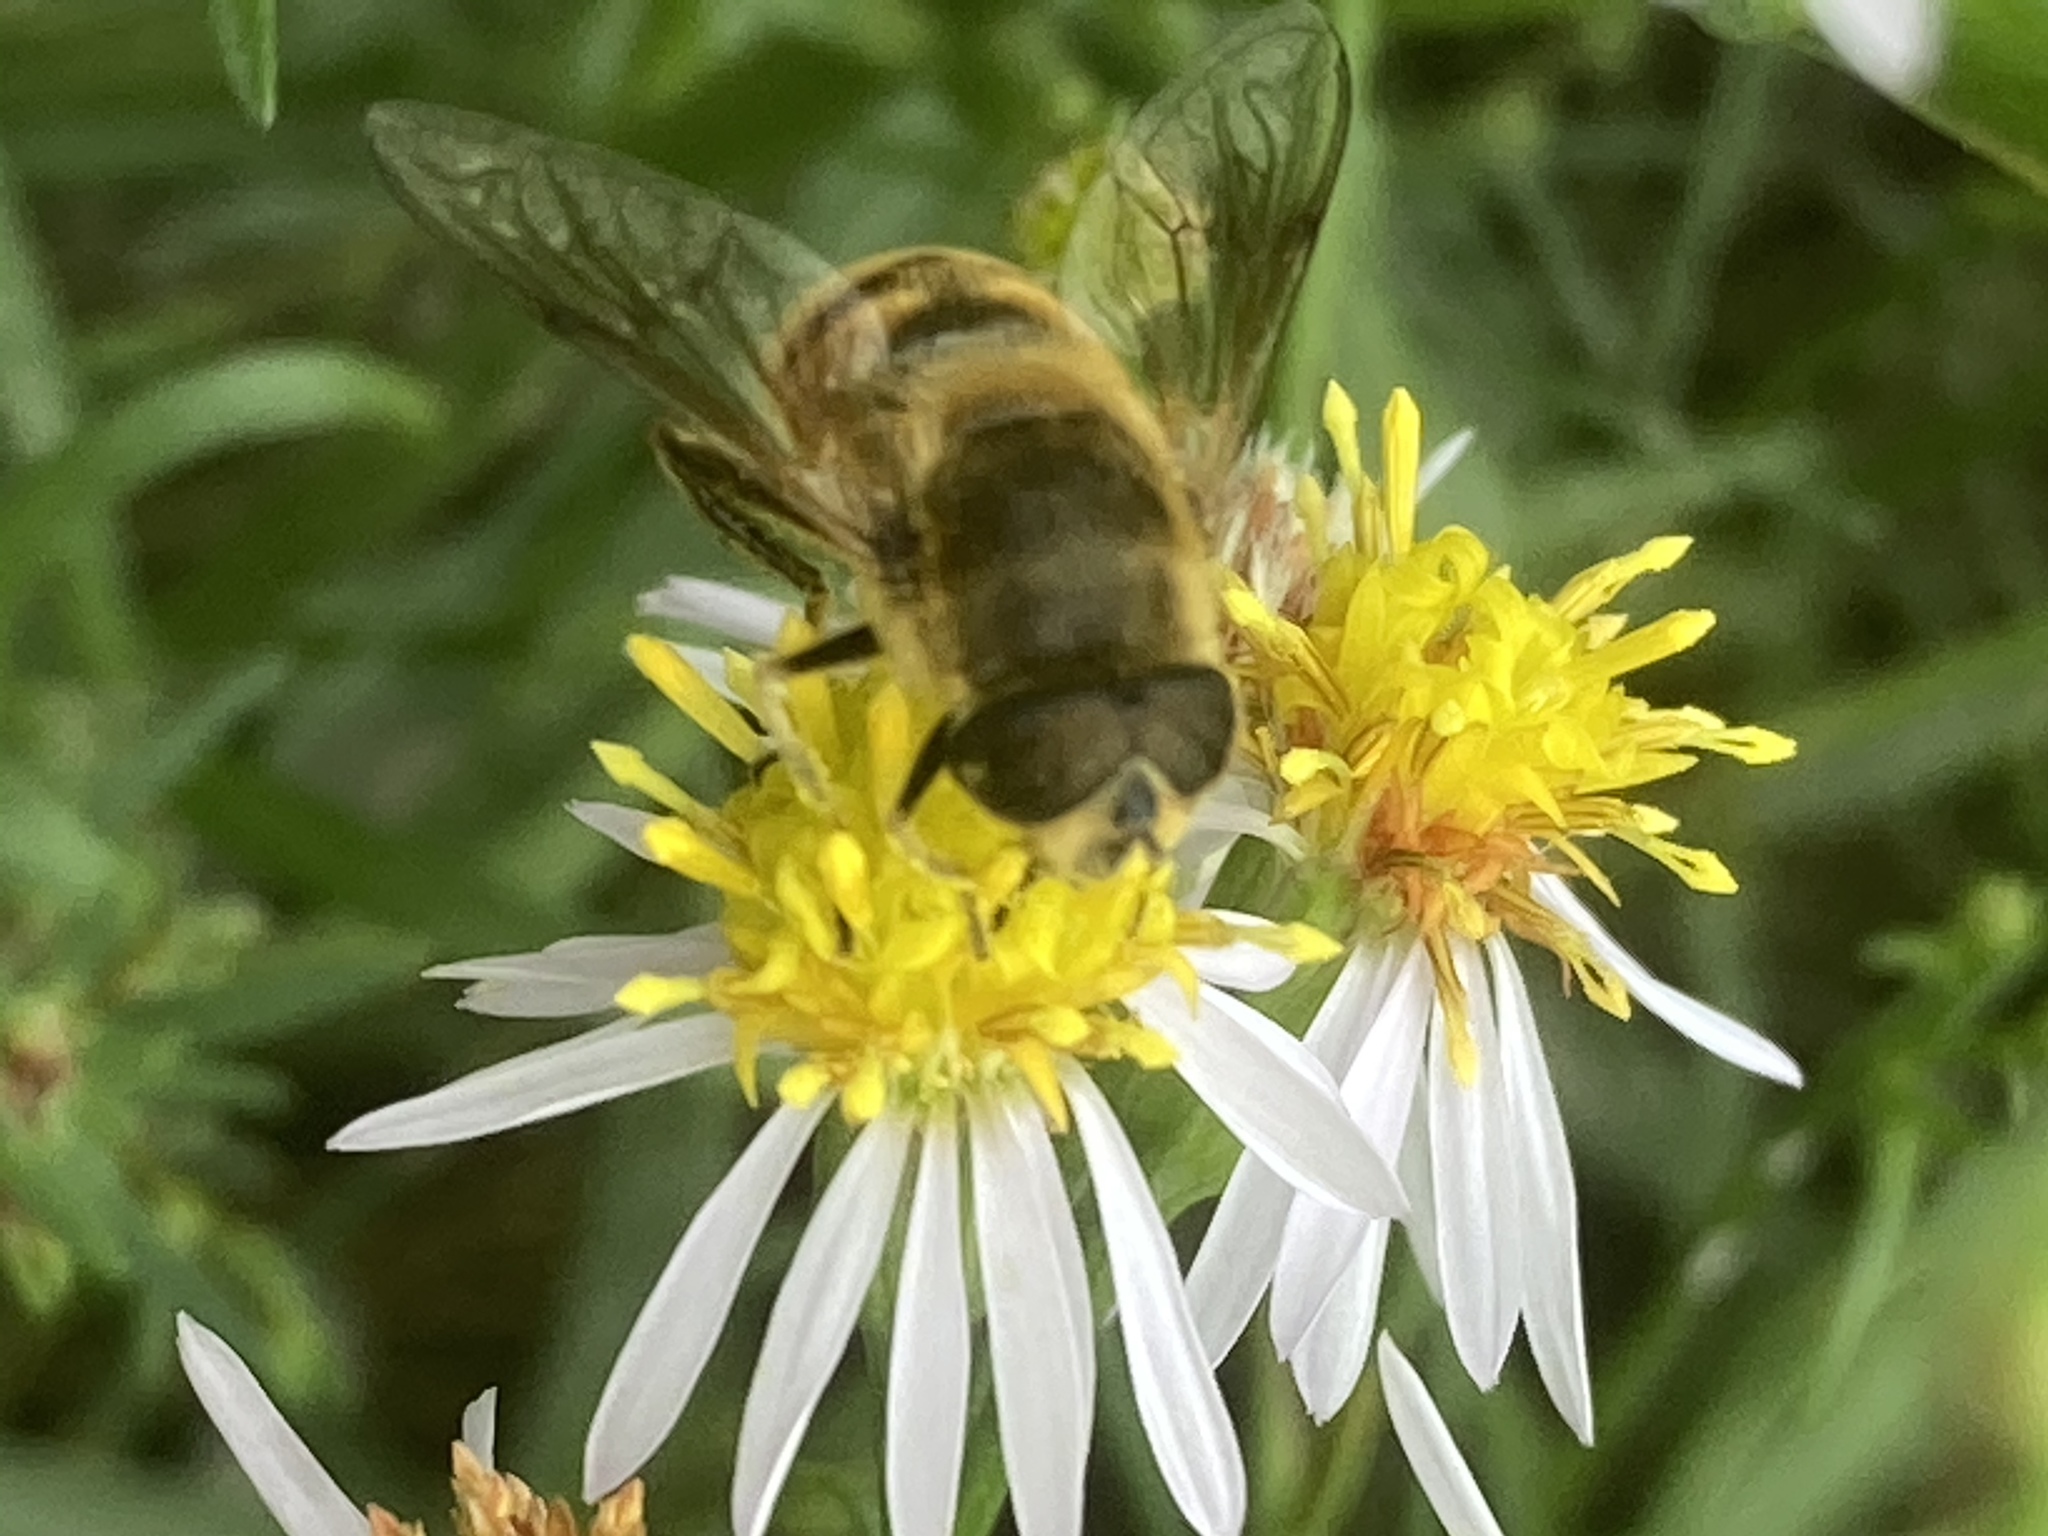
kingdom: Animalia
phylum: Arthropoda
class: Insecta
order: Diptera
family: Syrphidae
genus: Eristalis
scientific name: Eristalis tenax
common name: Drone fly
